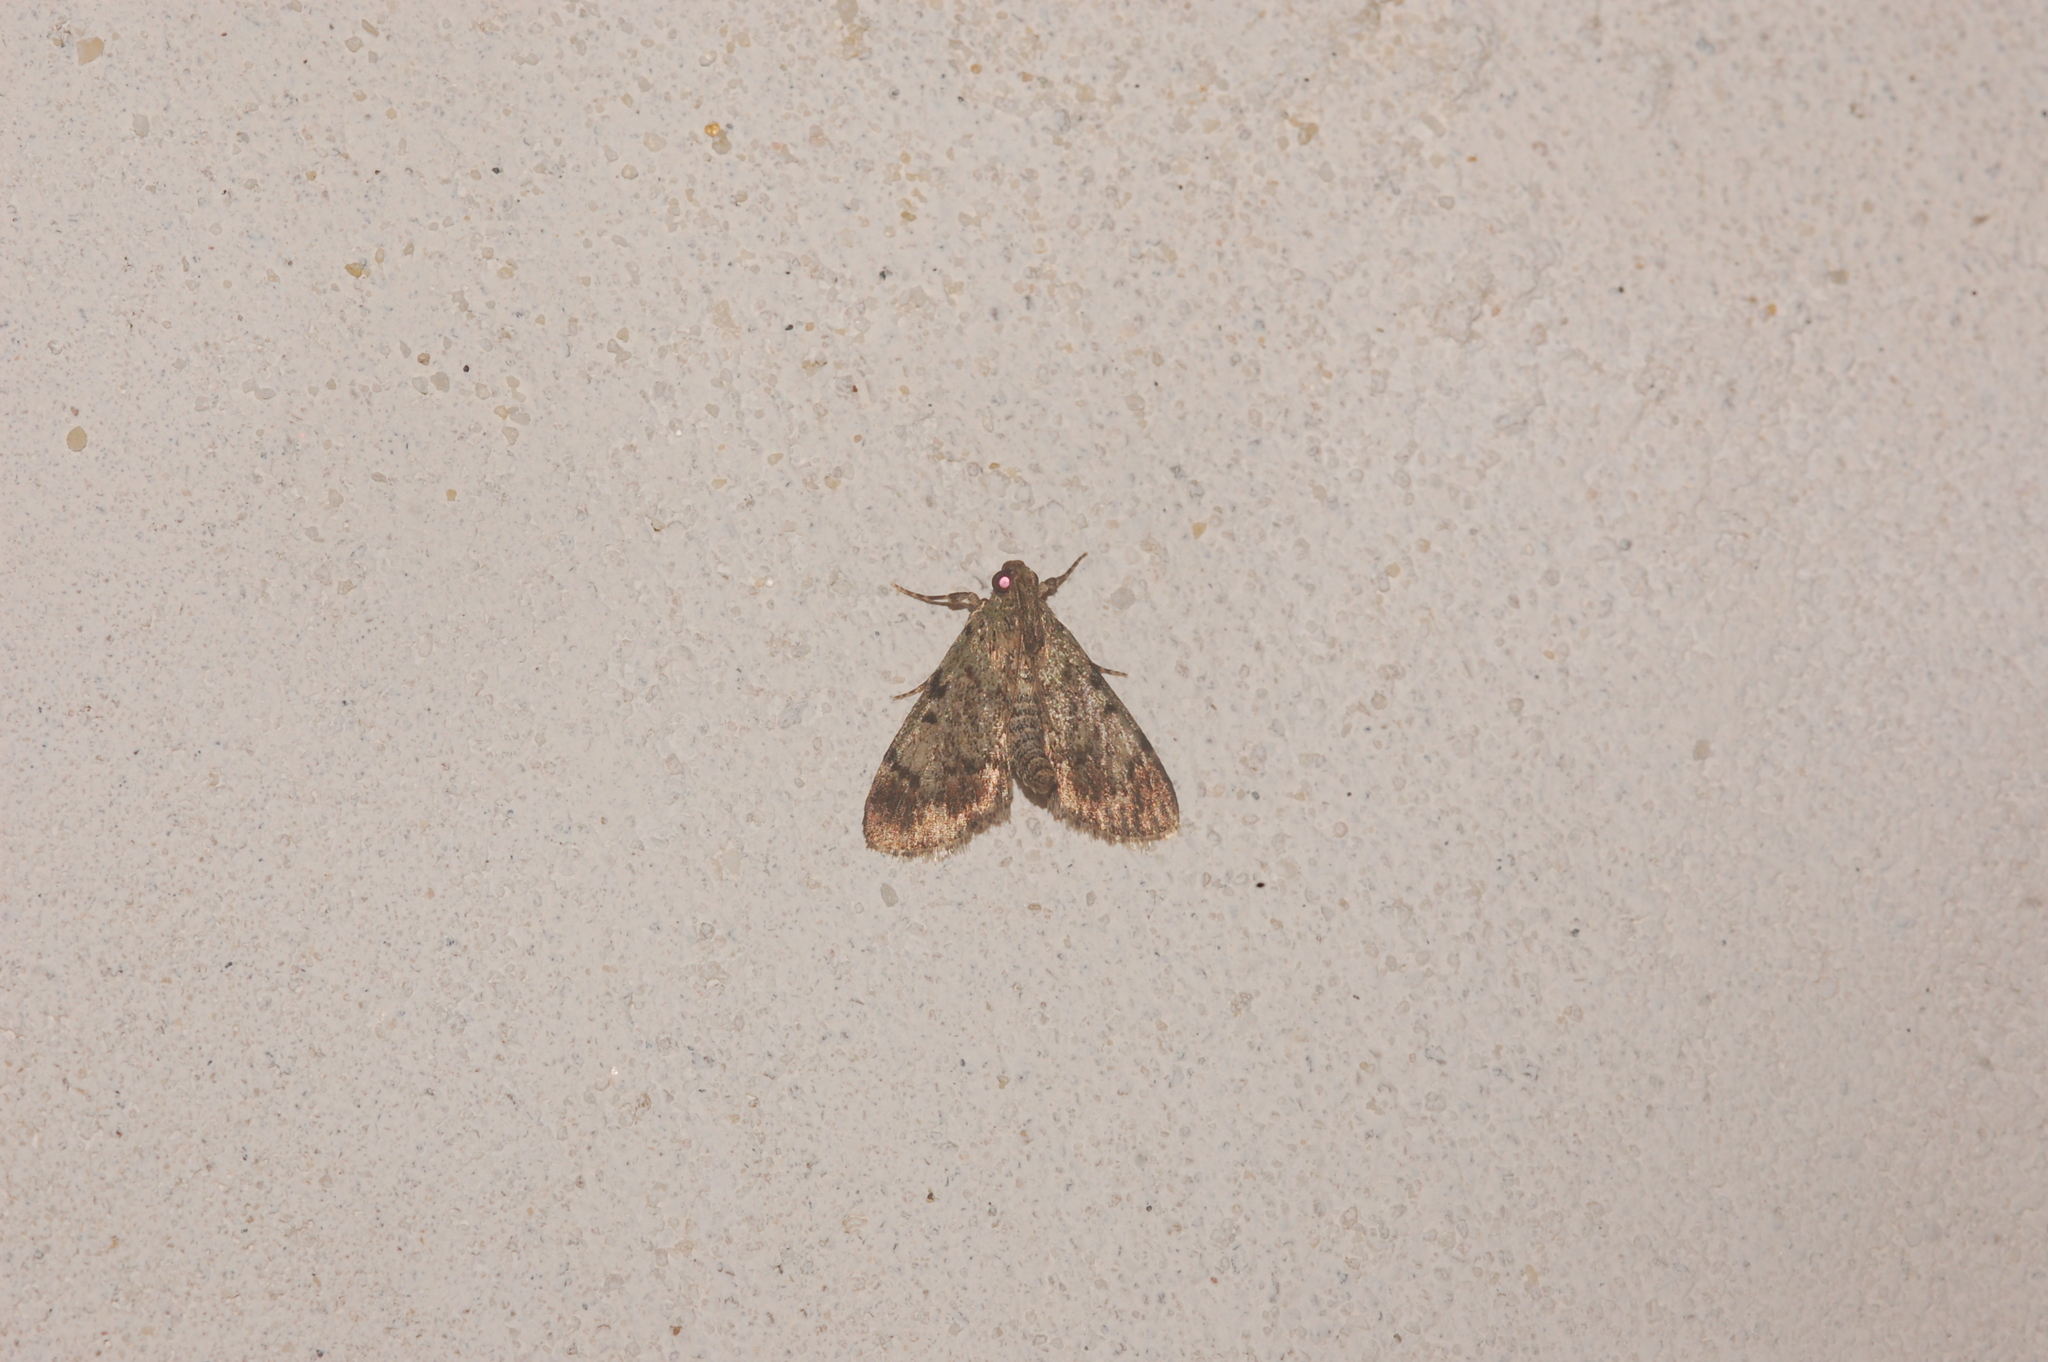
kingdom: Animalia
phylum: Arthropoda
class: Insecta
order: Lepidoptera
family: Pyralidae
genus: Epipaschia
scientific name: Epipaschia superatalis
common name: Dimorphic macalla moth
